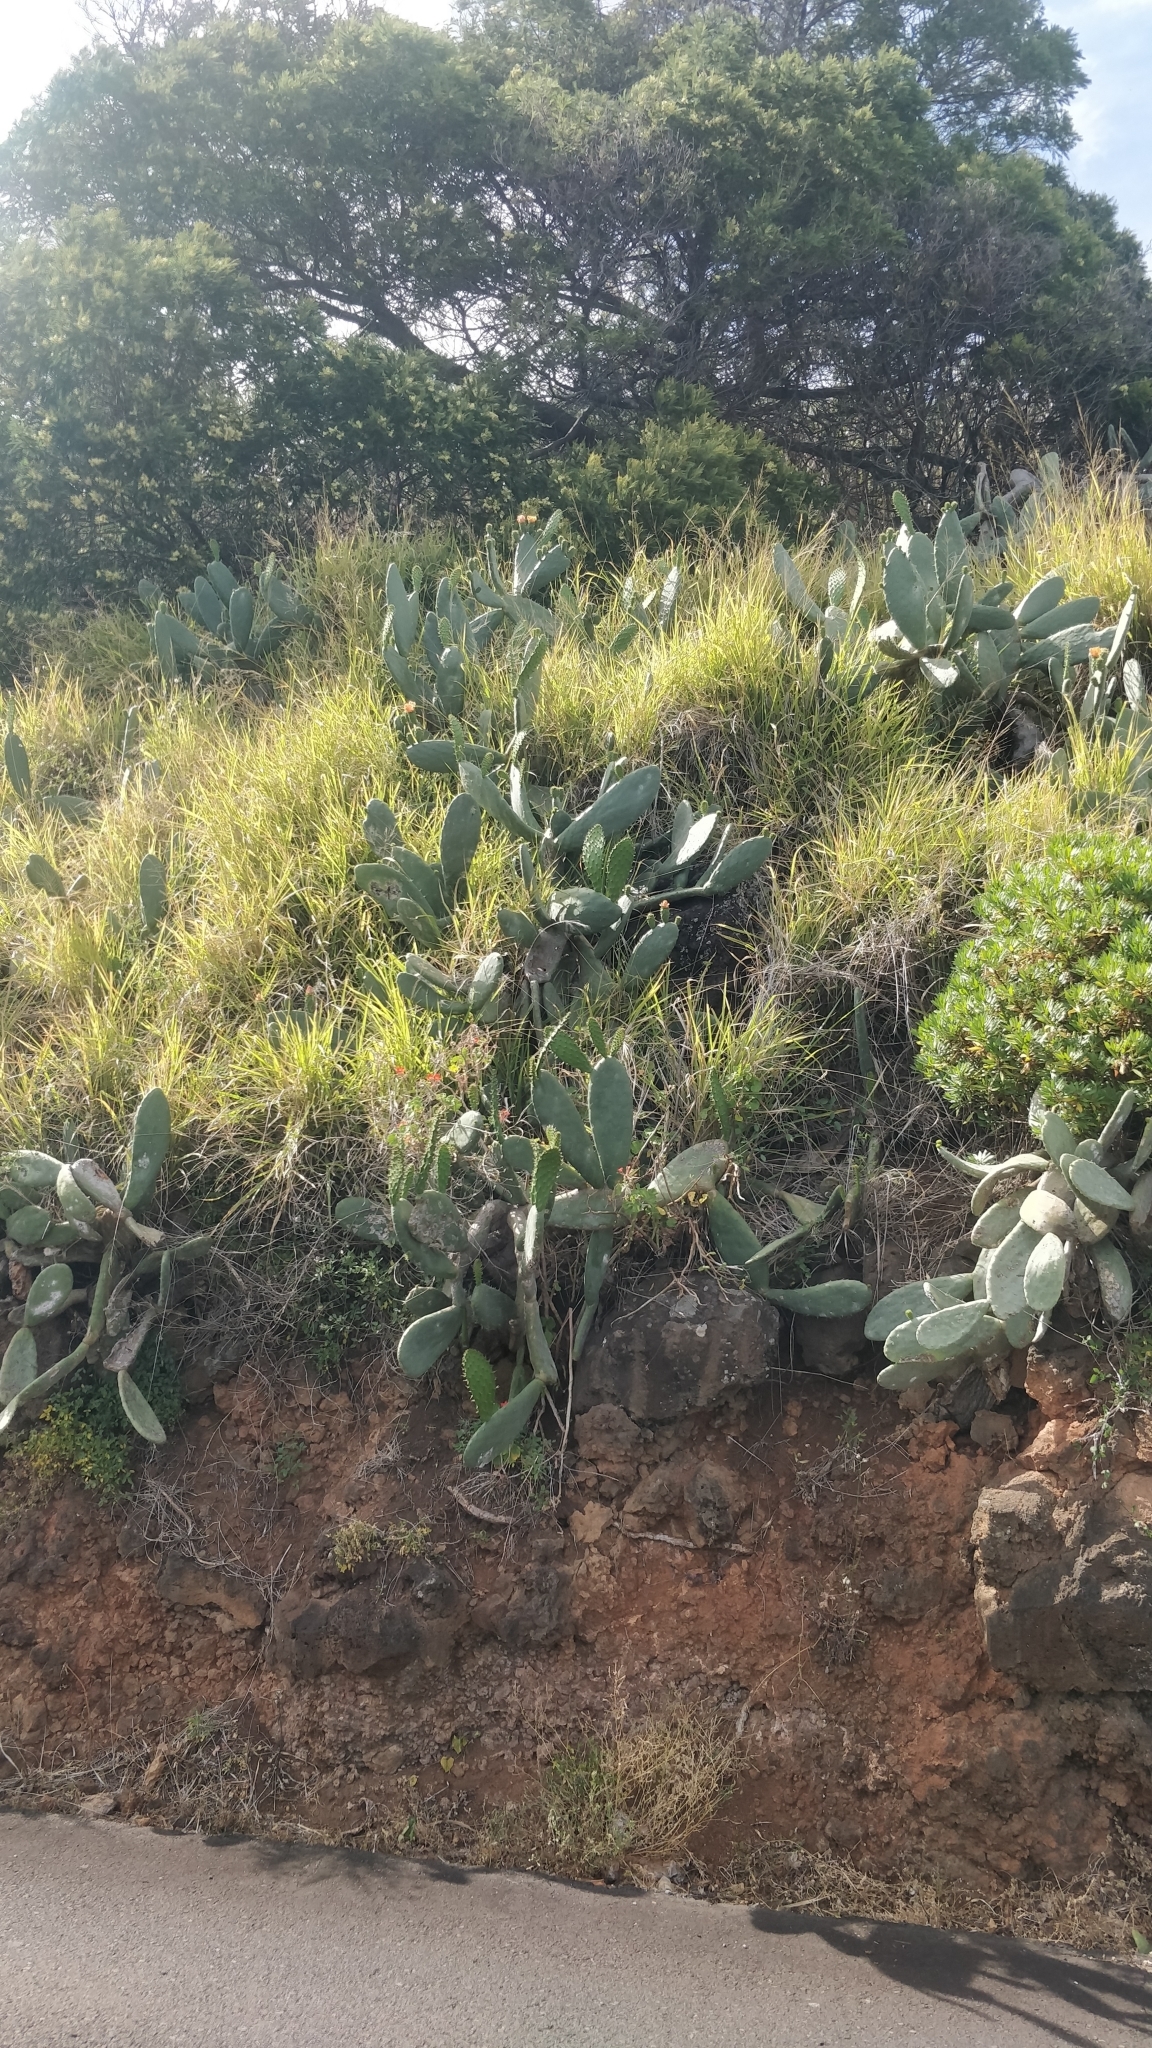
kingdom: Plantae
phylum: Tracheophyta
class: Magnoliopsida
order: Caryophyllales
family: Cactaceae
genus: Opuntia
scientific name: Opuntia ficus-indica
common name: Barbary fig
